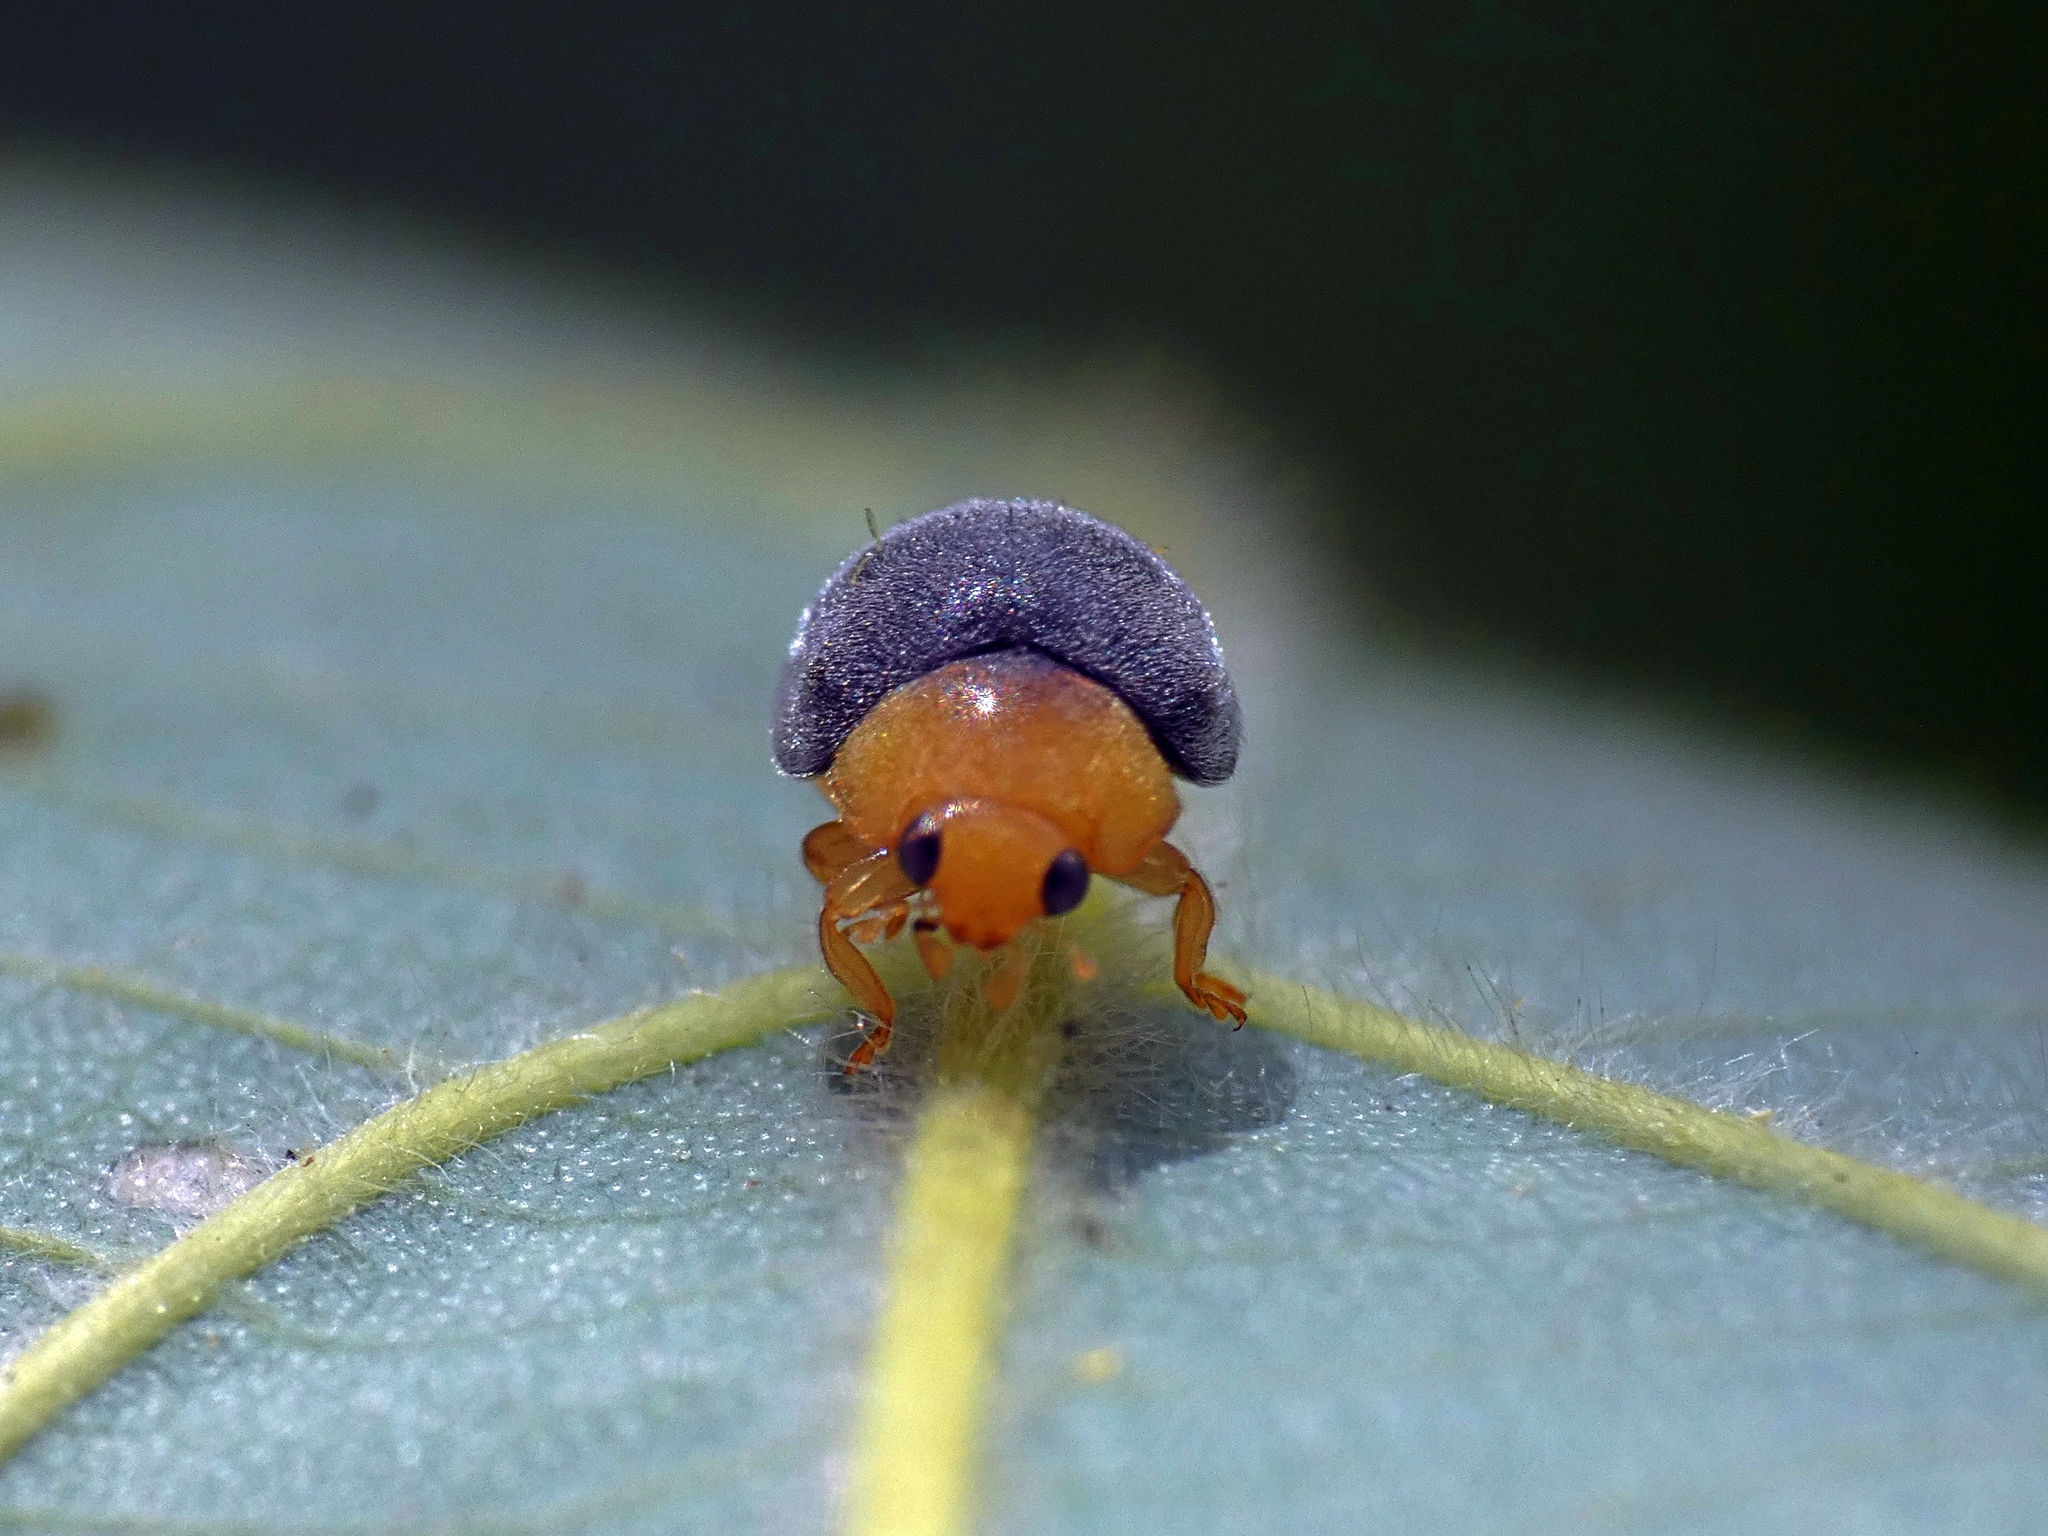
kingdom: Animalia
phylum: Arthropoda
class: Insecta
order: Coleoptera
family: Coccinellidae
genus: Cryptolaemus
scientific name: Cryptolaemus montrouzieri
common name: Mealybug destroyer
